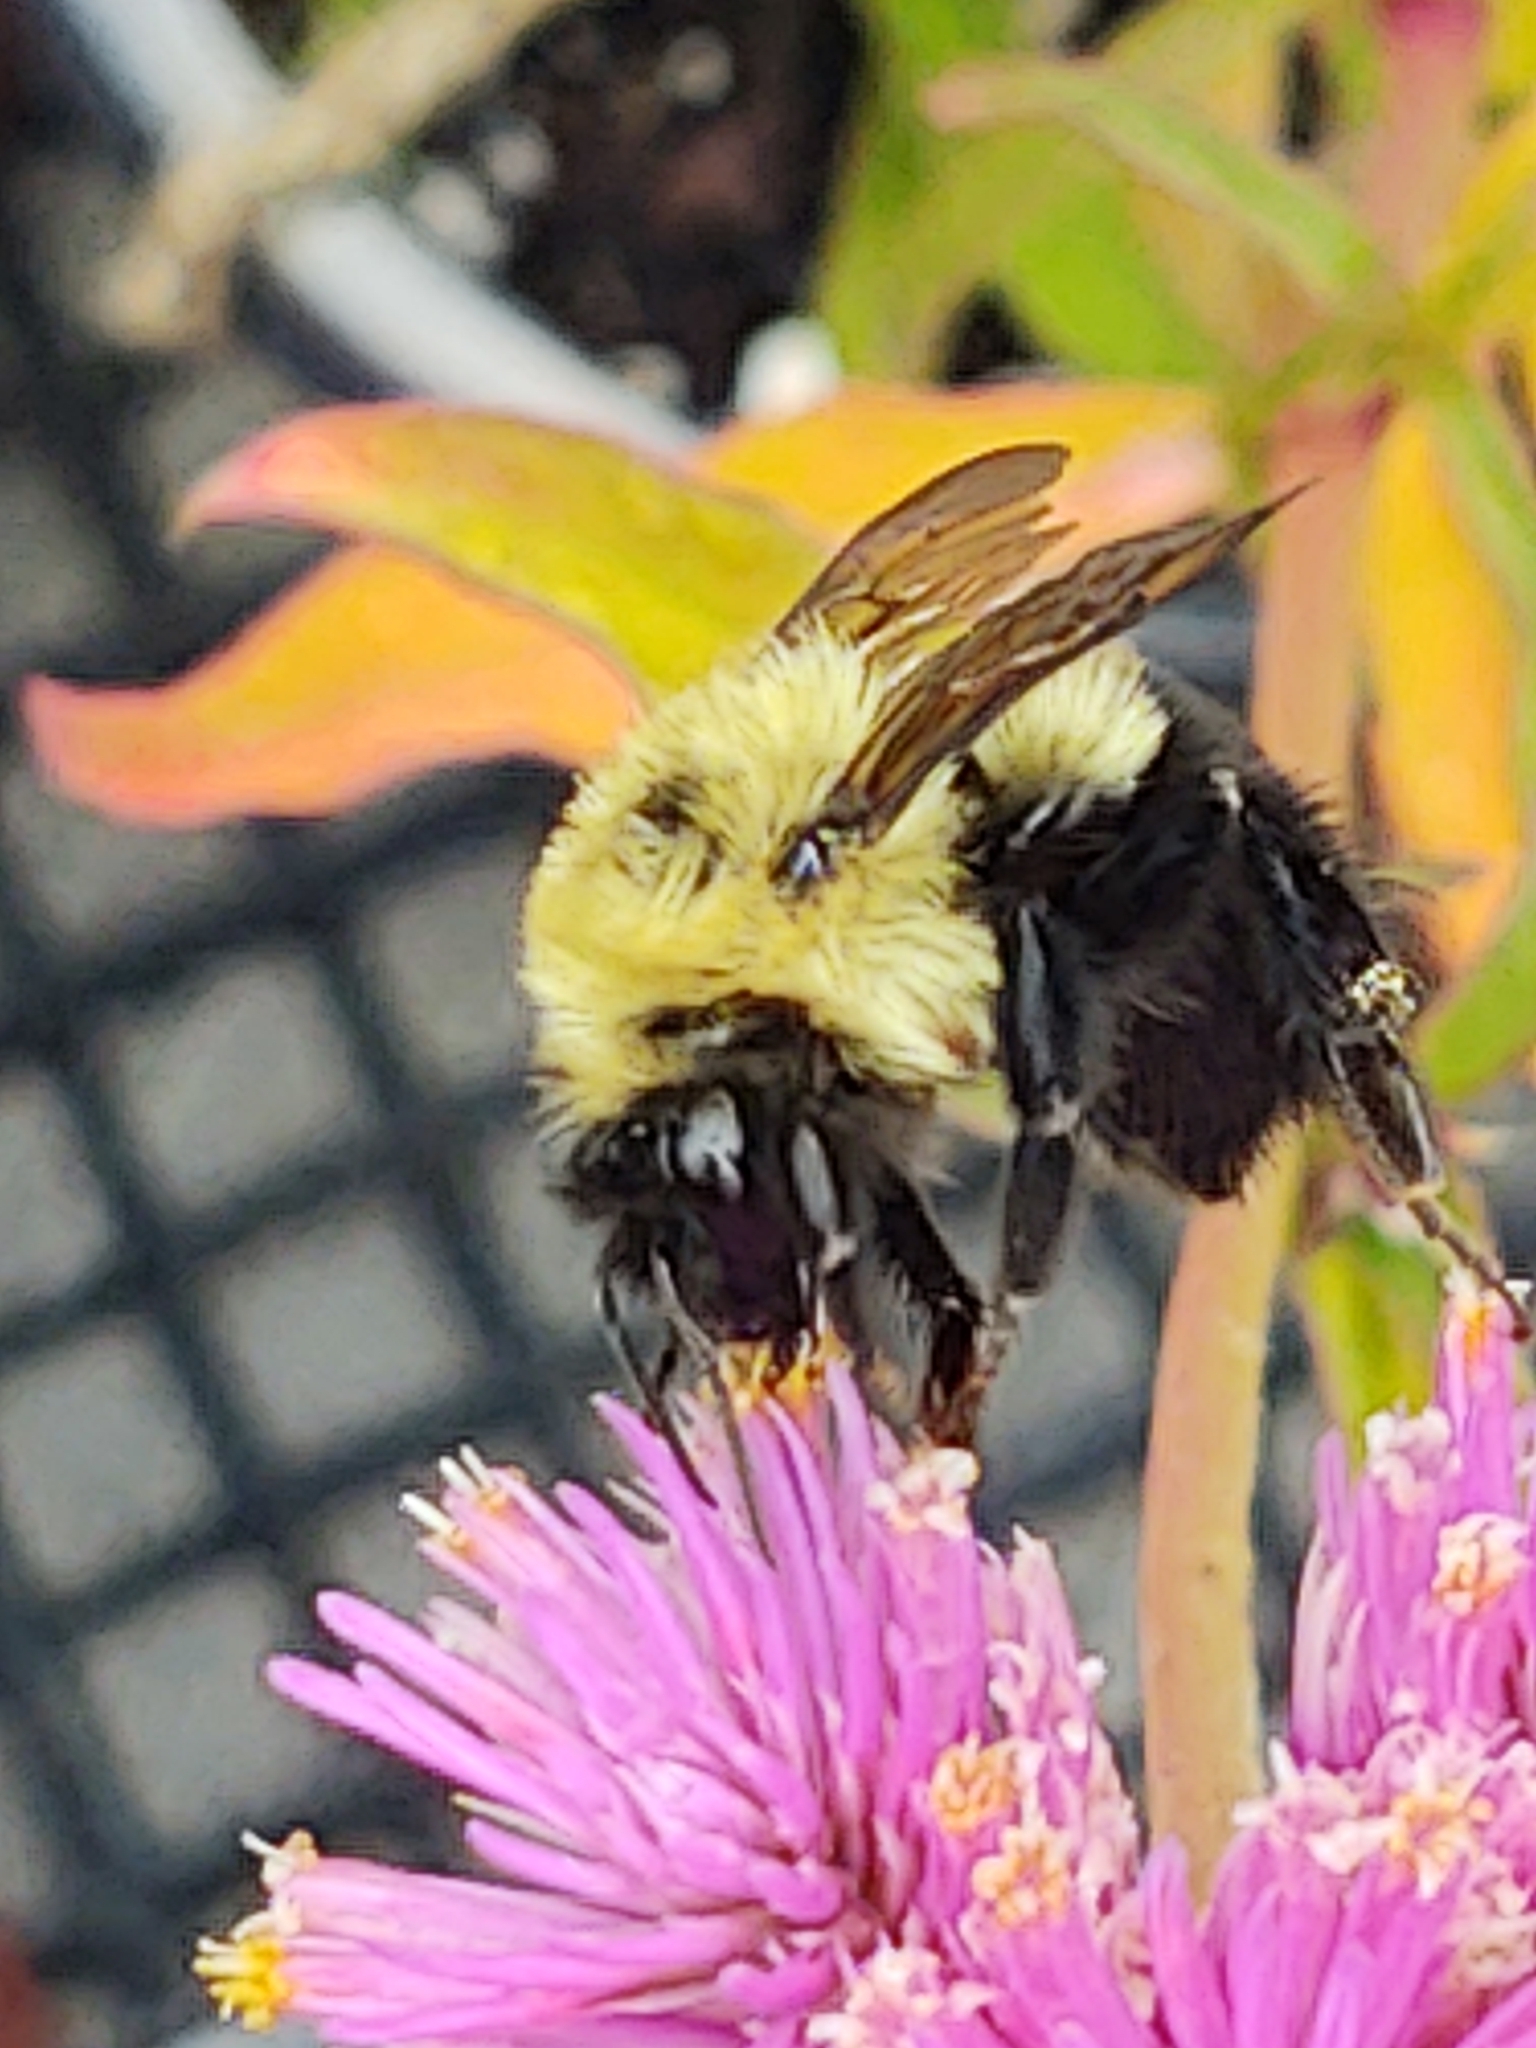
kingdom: Animalia
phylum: Arthropoda
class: Insecta
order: Hymenoptera
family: Apidae
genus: Bombus
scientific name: Bombus bimaculatus
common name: Two-spotted bumble bee
